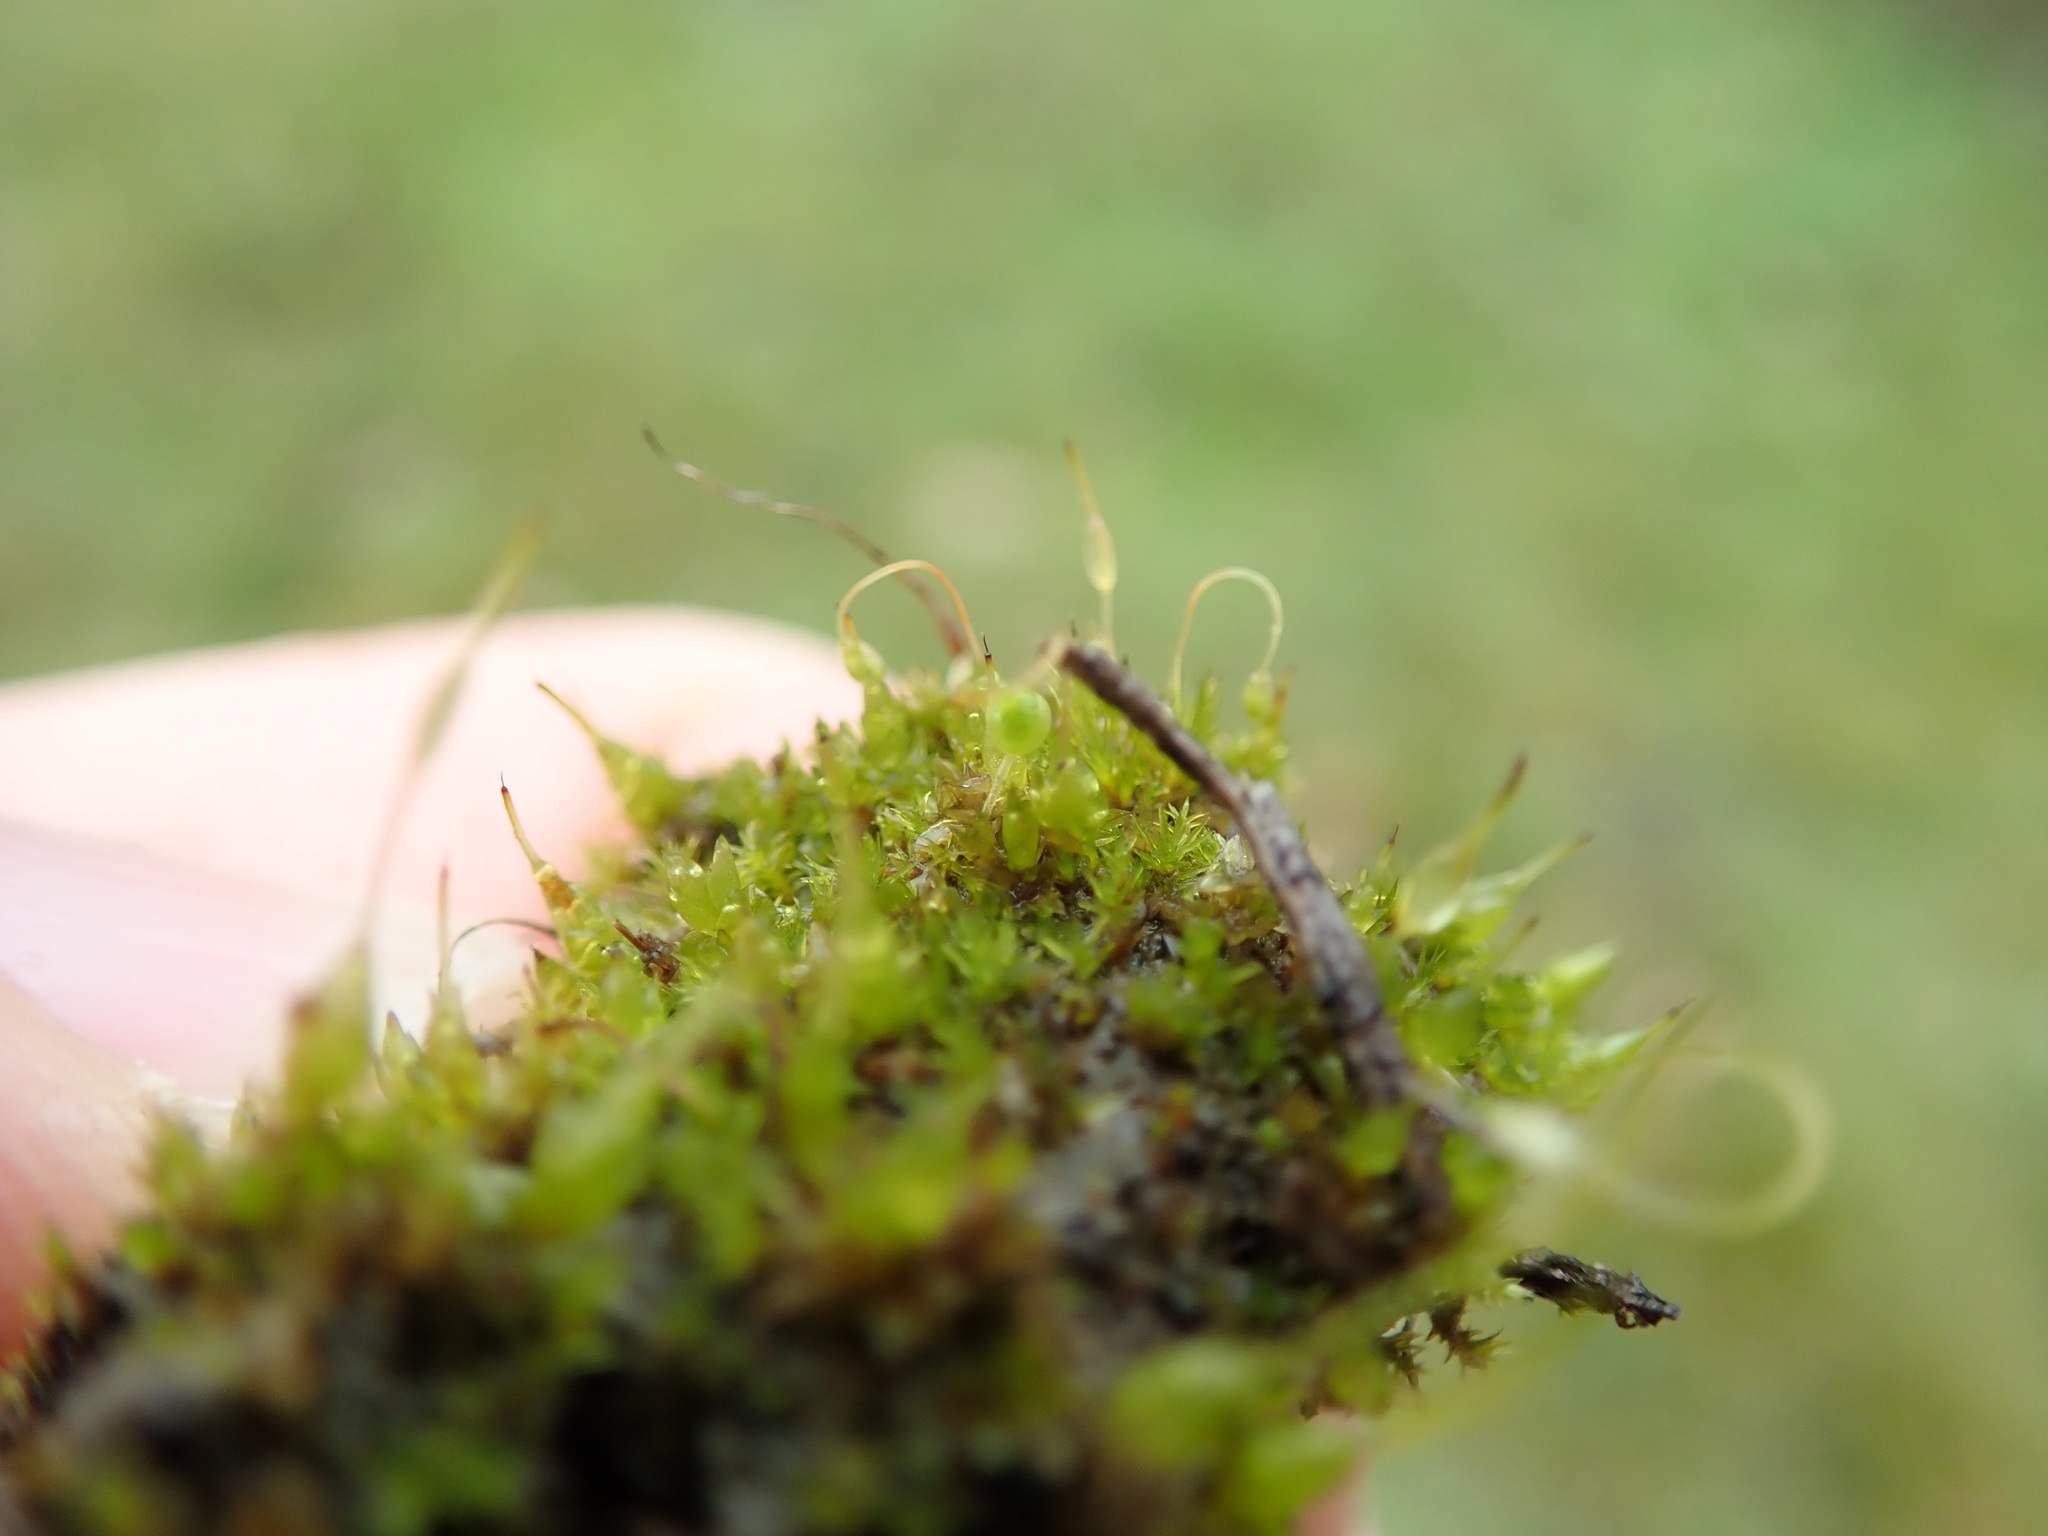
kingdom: Plantae
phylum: Bryophyta
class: Bryopsida
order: Funariales
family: Funariaceae
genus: Funaria
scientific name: Funaria hygrometrica
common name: Common cord moss
